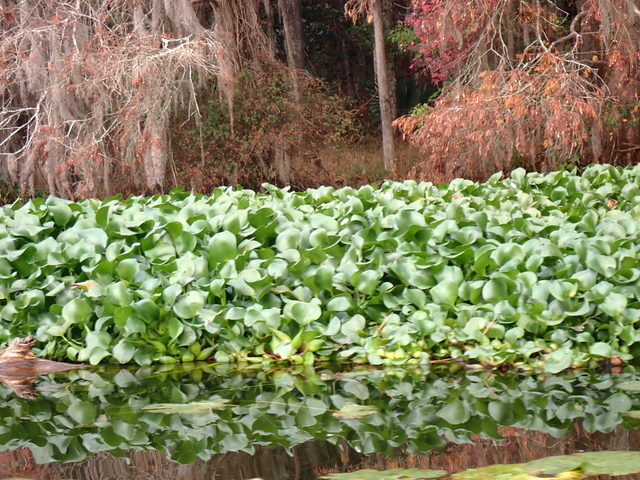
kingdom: Plantae
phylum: Tracheophyta
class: Liliopsida
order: Commelinales
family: Pontederiaceae
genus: Pontederia
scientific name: Pontederia crassipes
